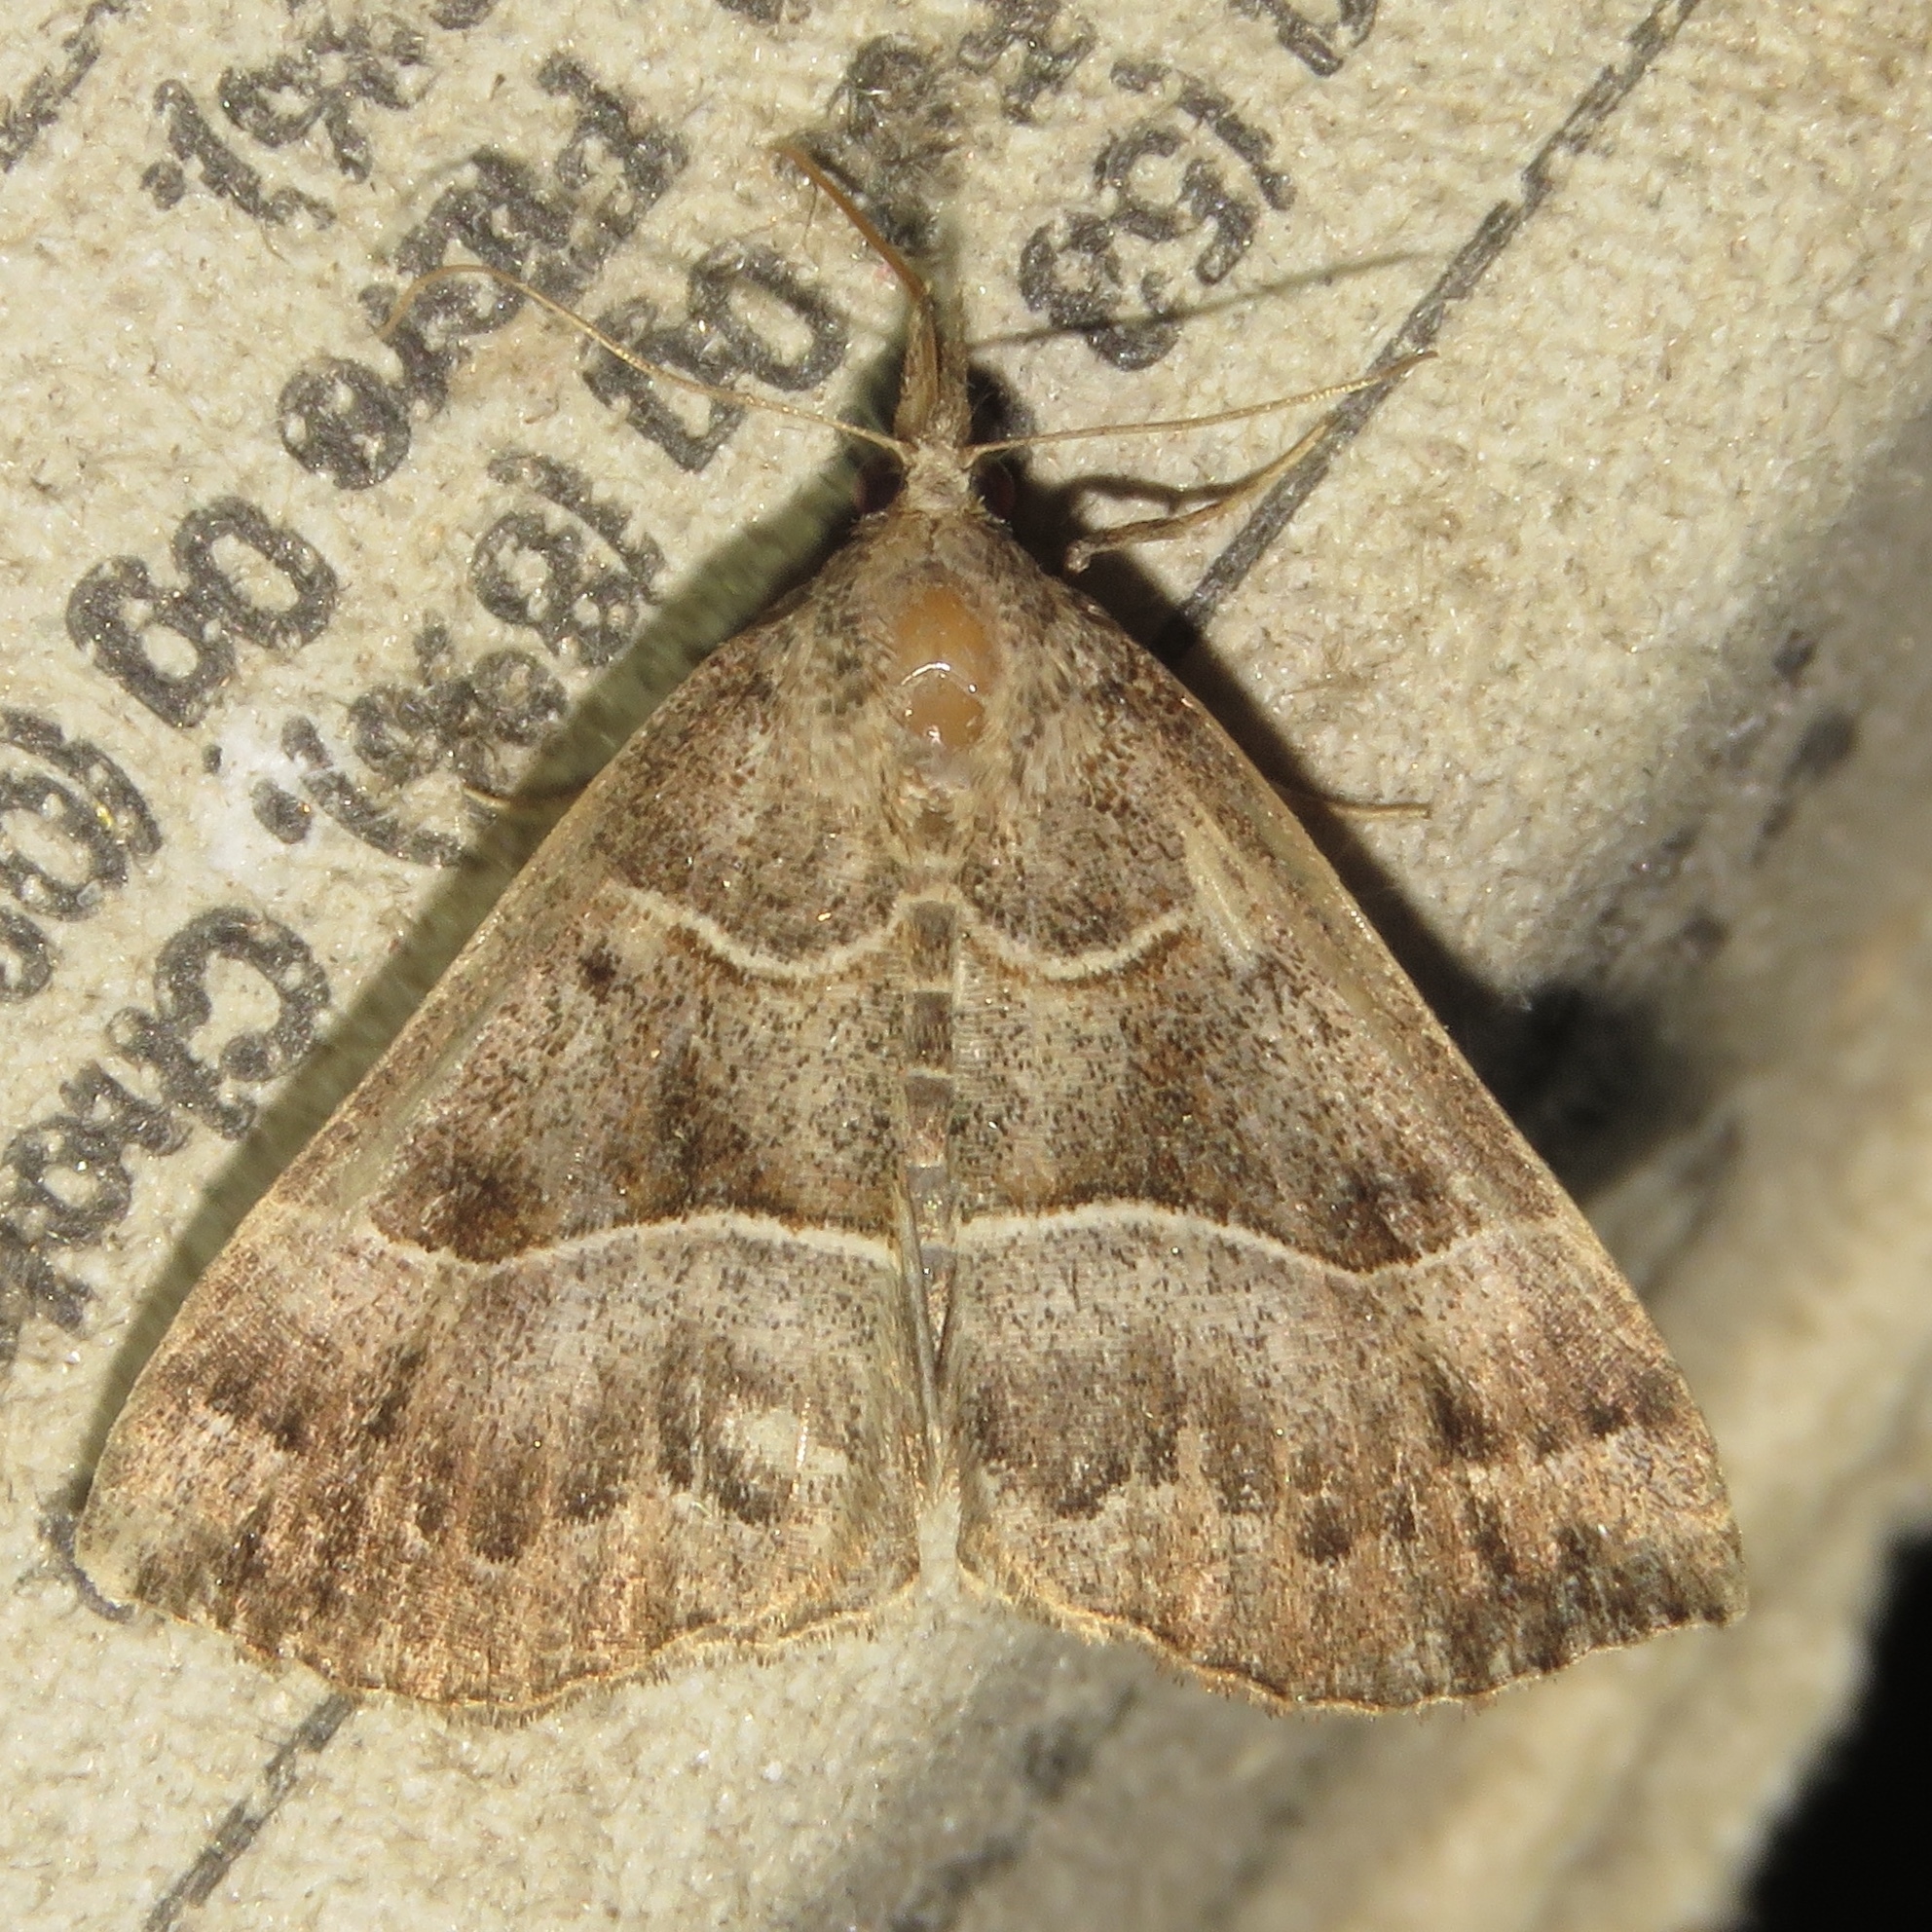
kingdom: Animalia
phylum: Arthropoda
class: Insecta
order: Lepidoptera
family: Erebidae
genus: Hypena
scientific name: Hypena deceptalis
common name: Deceptive snout
